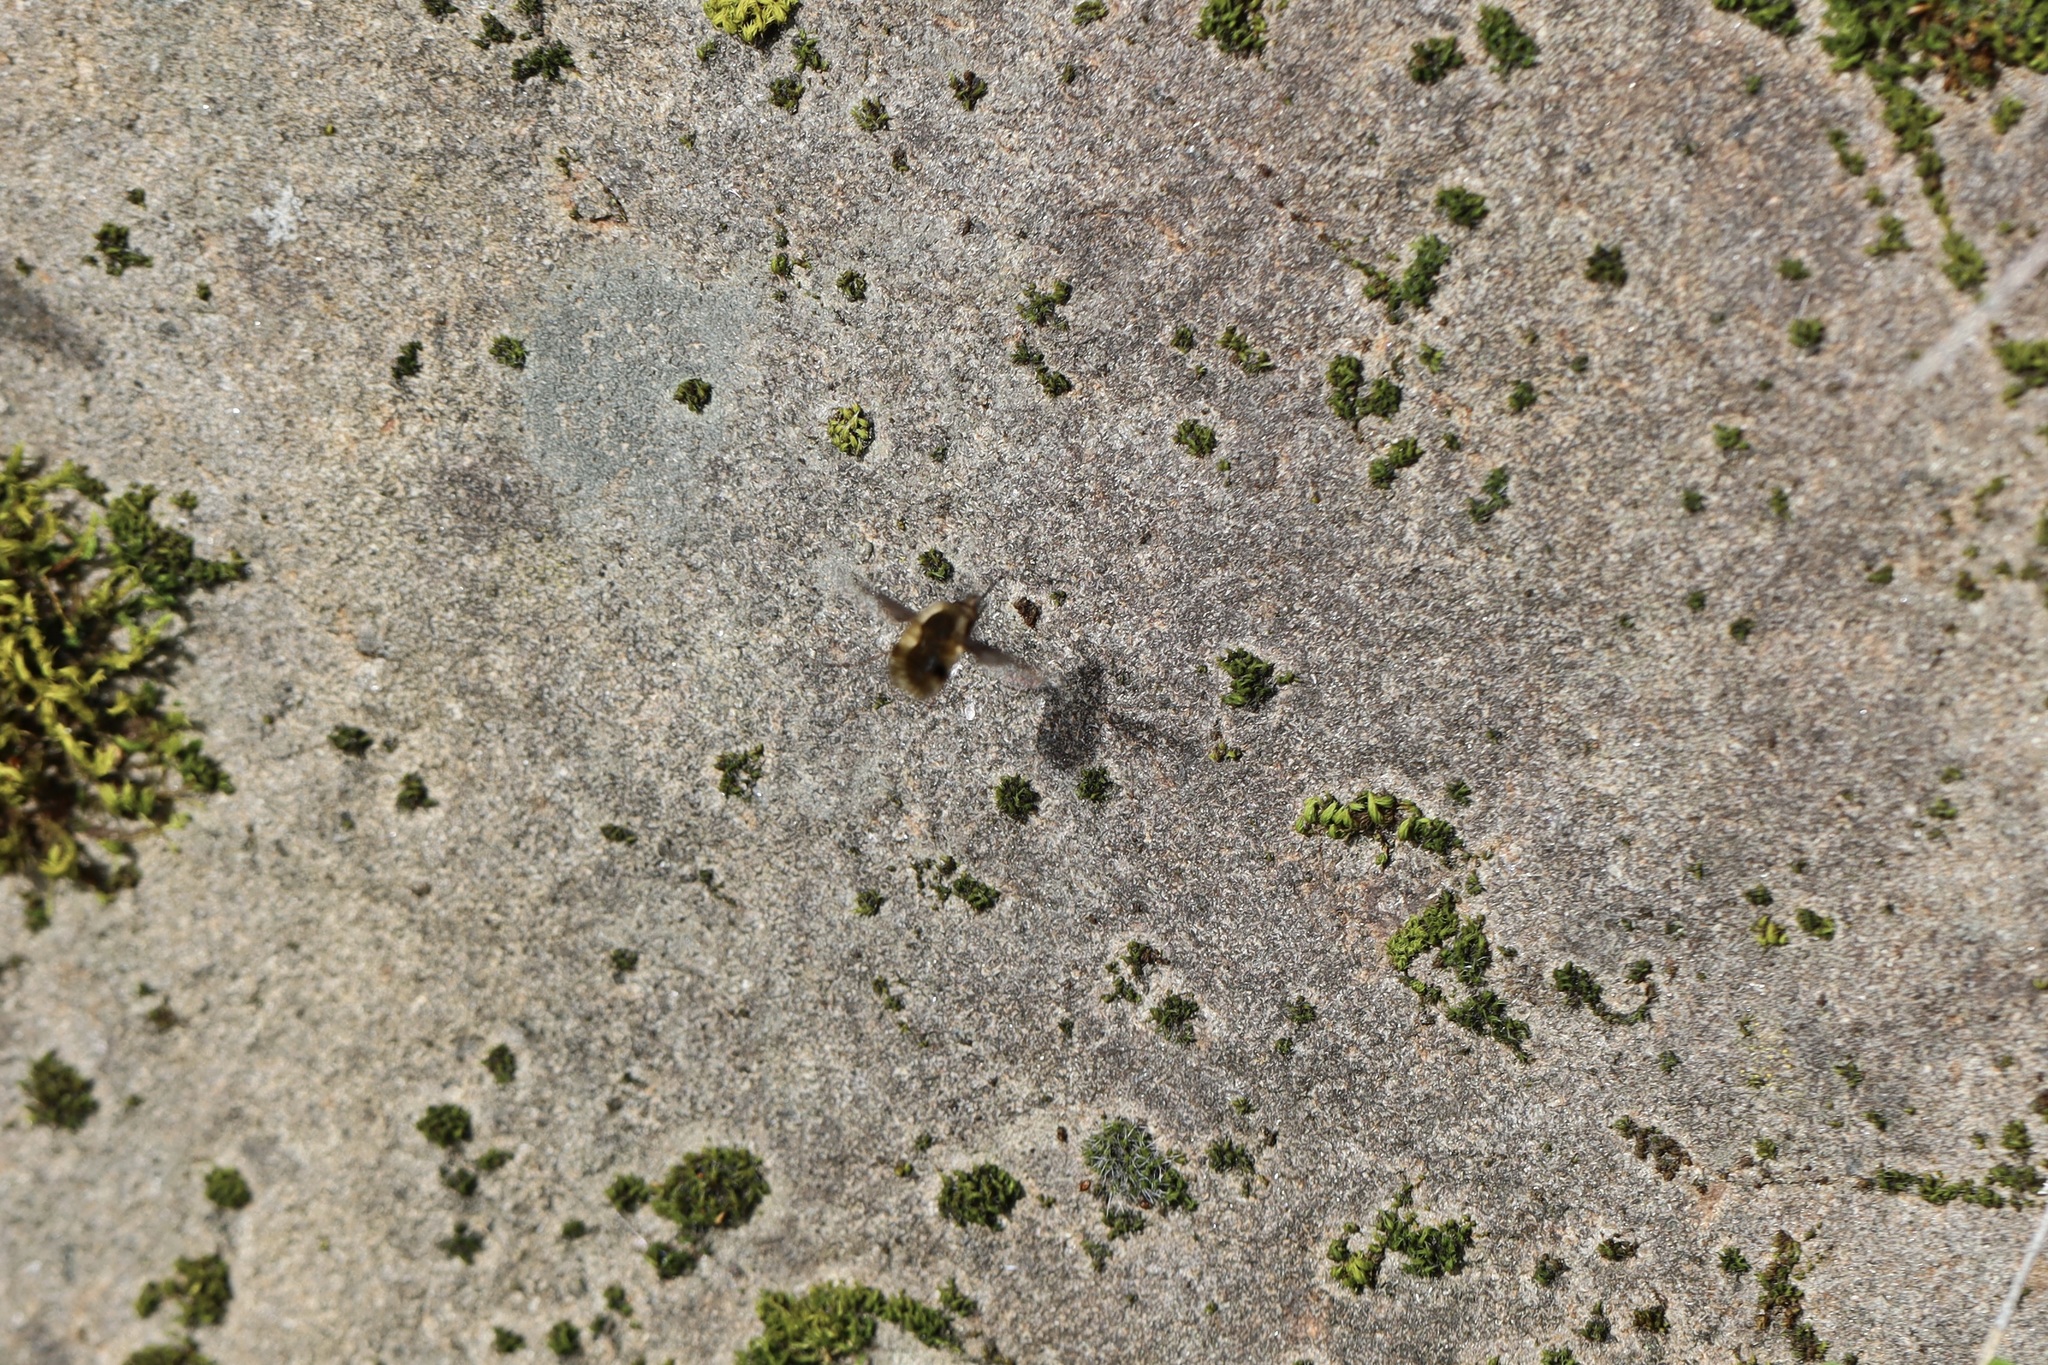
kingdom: Animalia
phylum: Arthropoda
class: Insecta
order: Diptera
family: Bombyliidae
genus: Bombylius
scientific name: Bombylius major
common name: Bee fly
